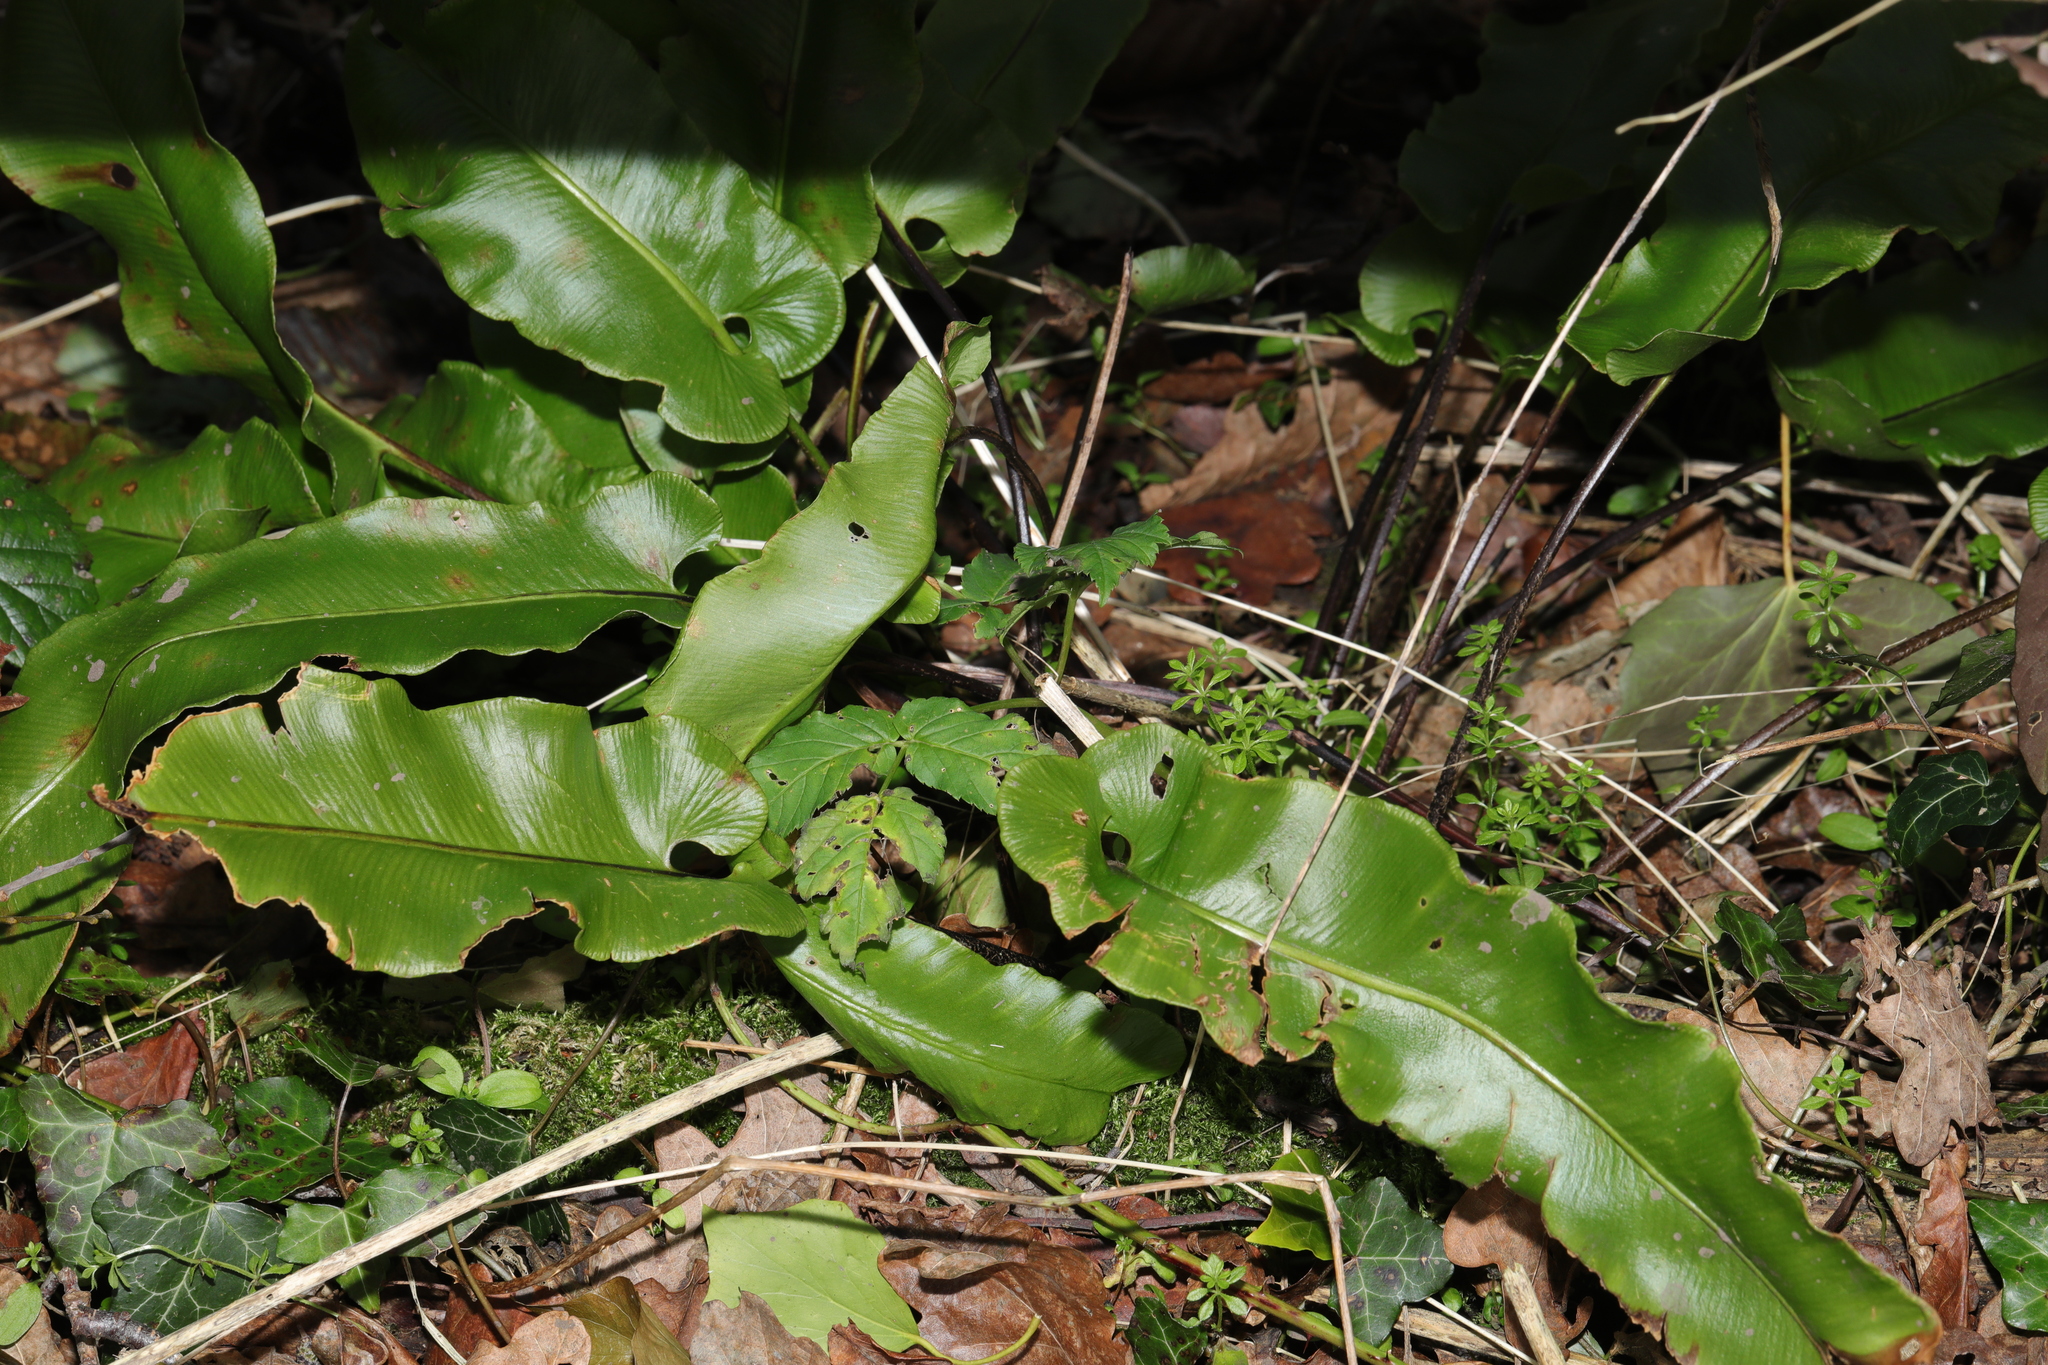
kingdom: Plantae
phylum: Tracheophyta
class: Polypodiopsida
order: Polypodiales
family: Aspleniaceae
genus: Asplenium
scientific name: Asplenium scolopendrium
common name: Hart's-tongue fern
